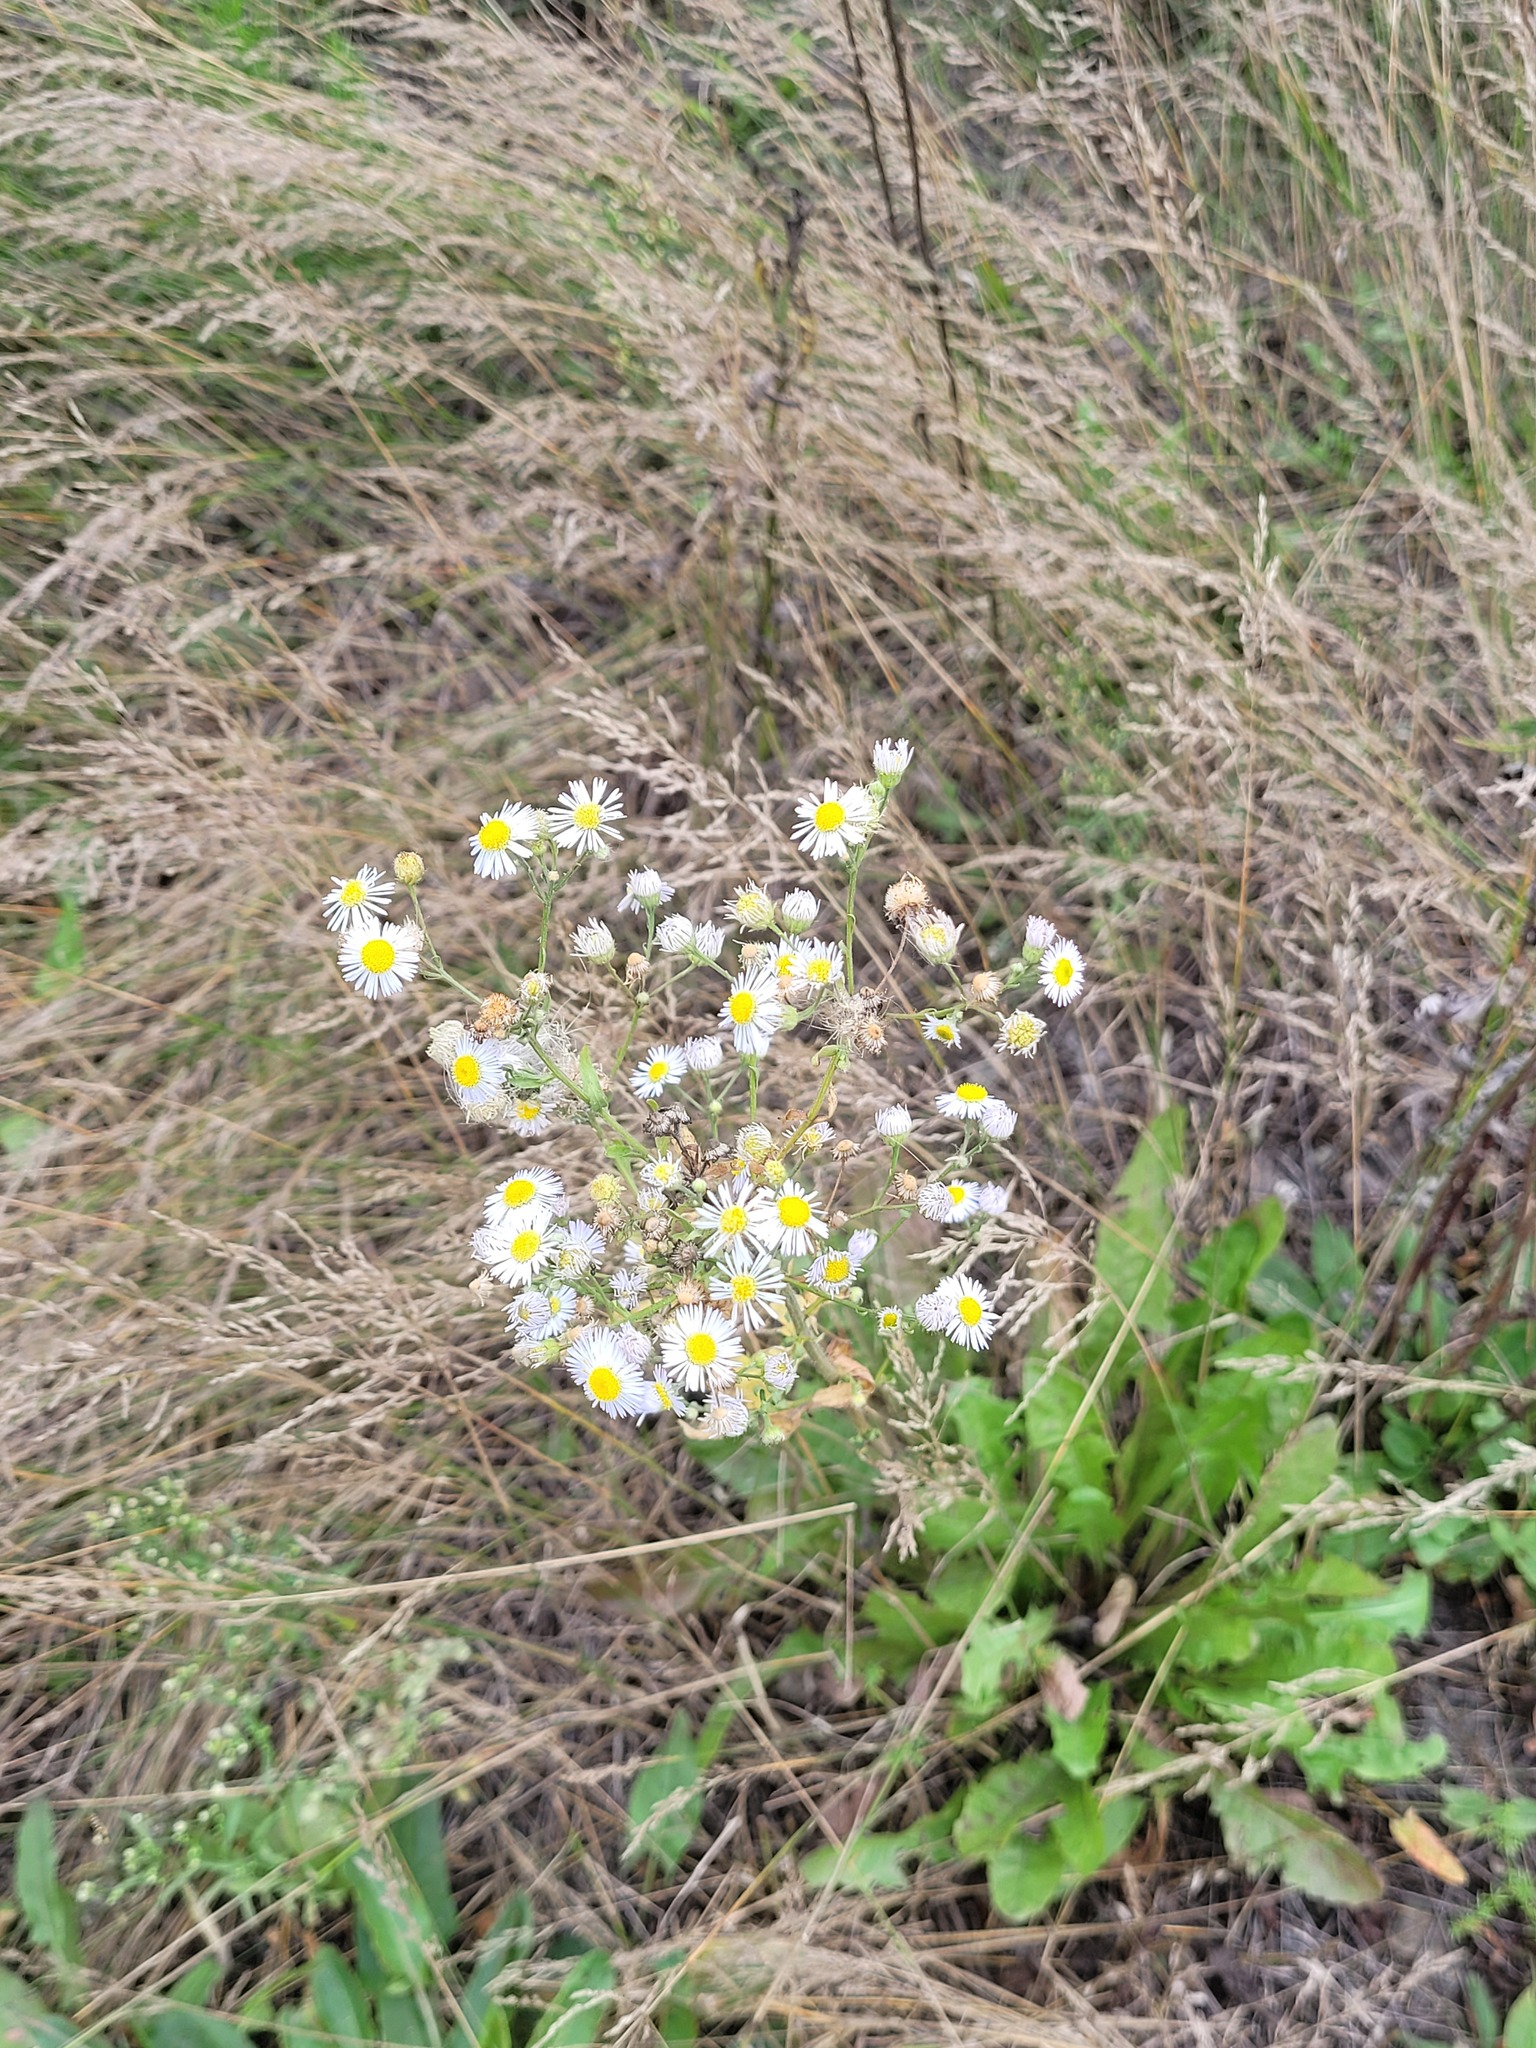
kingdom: Plantae
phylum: Tracheophyta
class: Magnoliopsida
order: Asterales
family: Asteraceae
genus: Erigeron
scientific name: Erigeron annuus
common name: Tall fleabane
